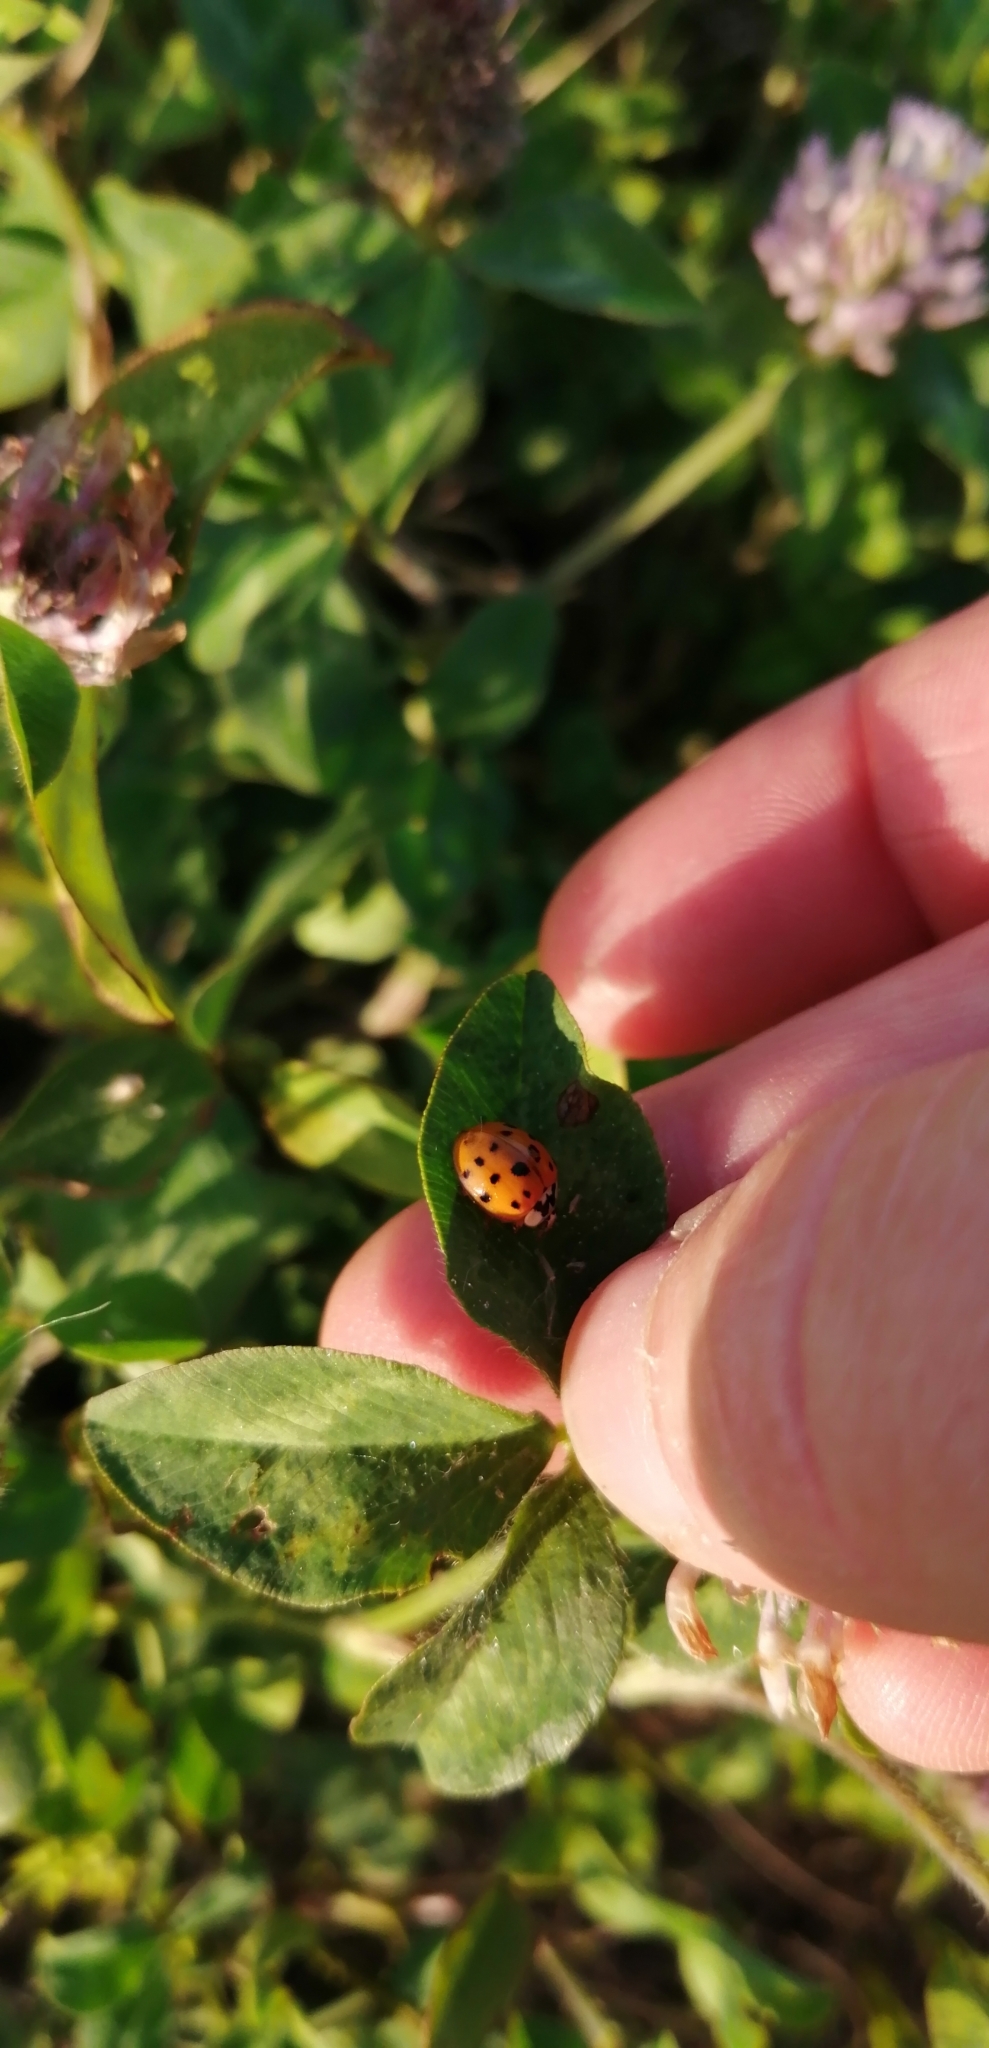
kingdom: Animalia
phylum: Arthropoda
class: Insecta
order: Coleoptera
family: Coccinellidae
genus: Harmonia
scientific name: Harmonia axyridis
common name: Harlequin ladybird
